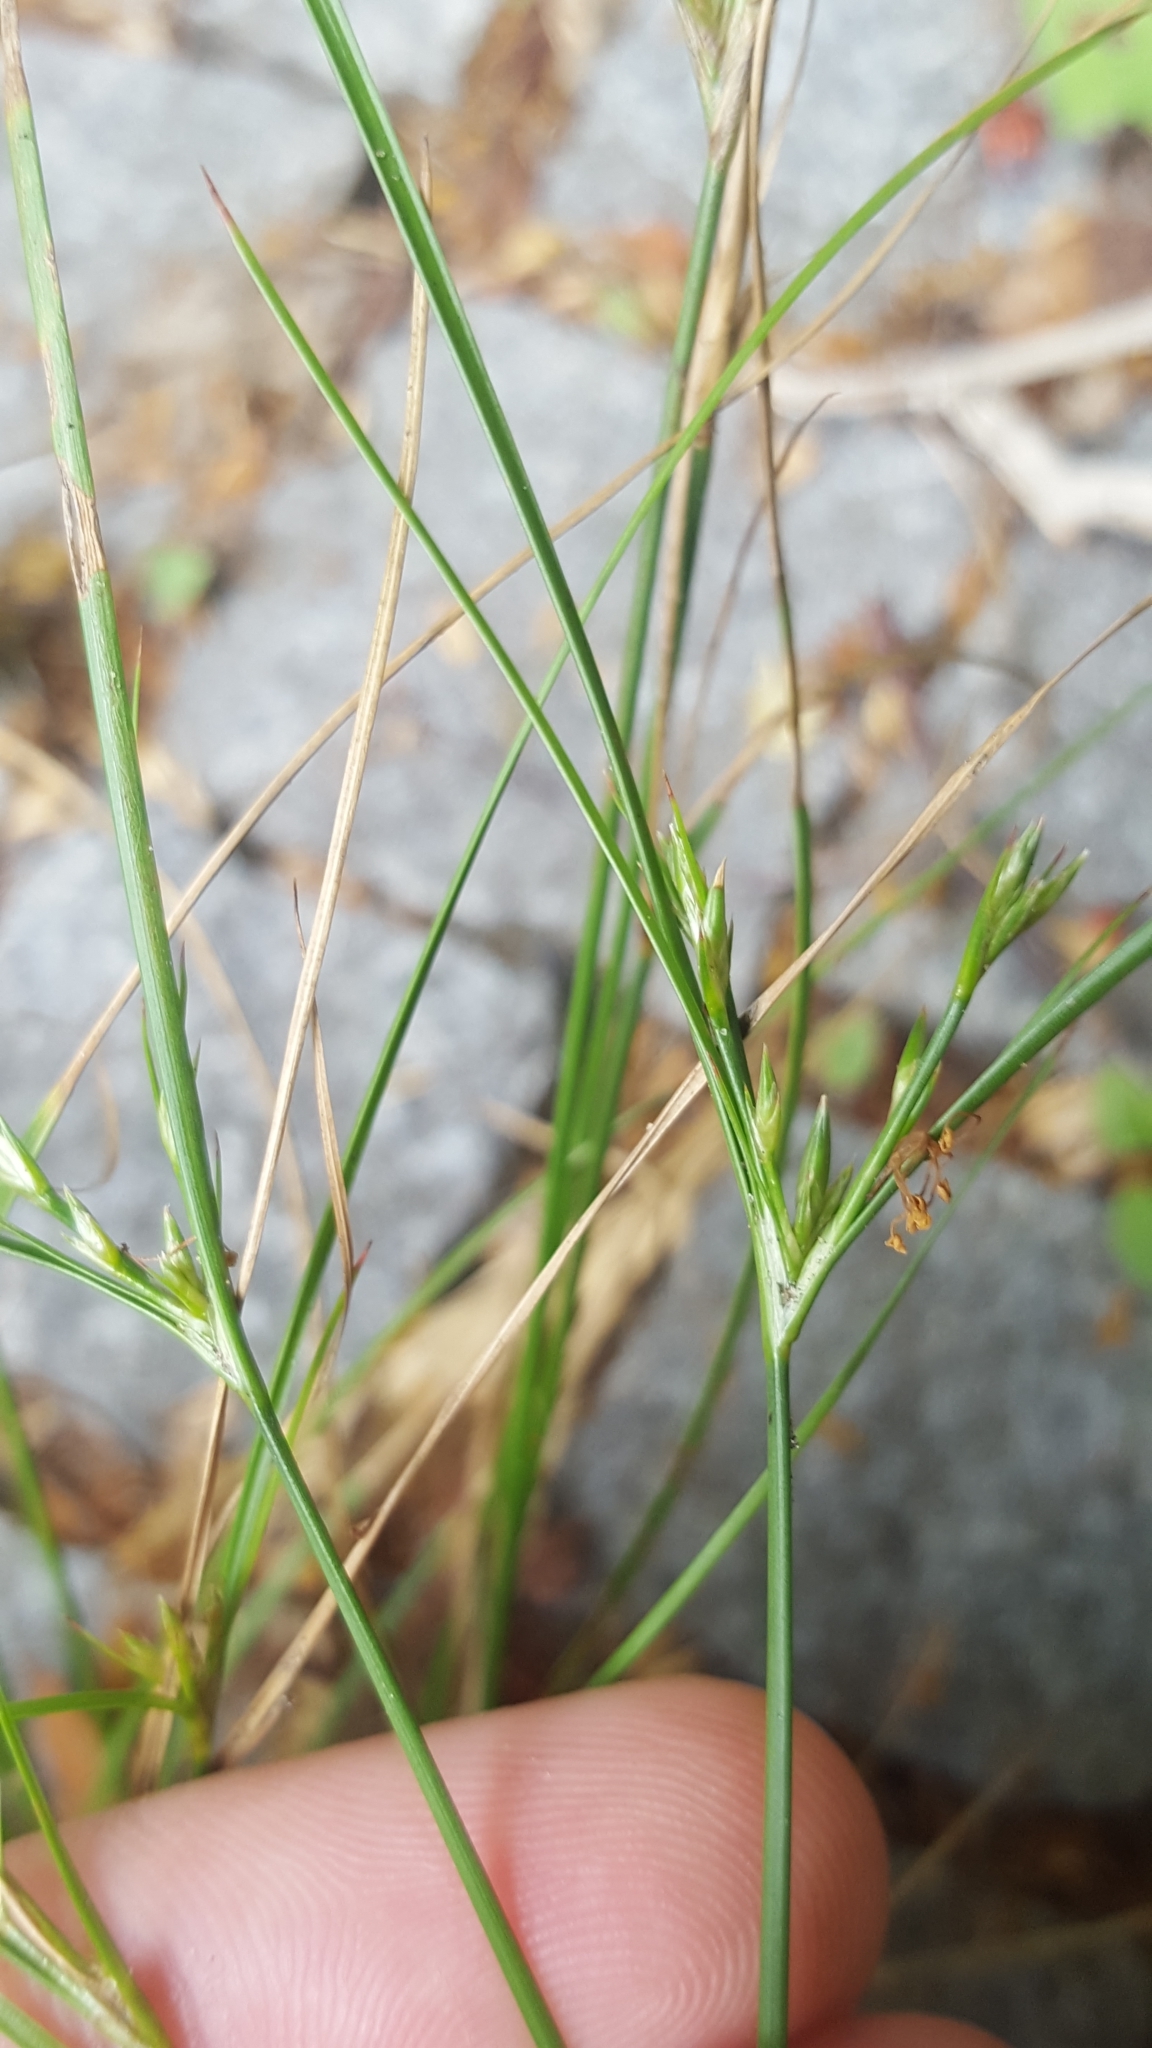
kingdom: Plantae
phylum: Tracheophyta
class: Liliopsida
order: Poales
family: Juncaceae
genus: Juncus
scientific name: Juncus tenuis
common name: Slender rush
